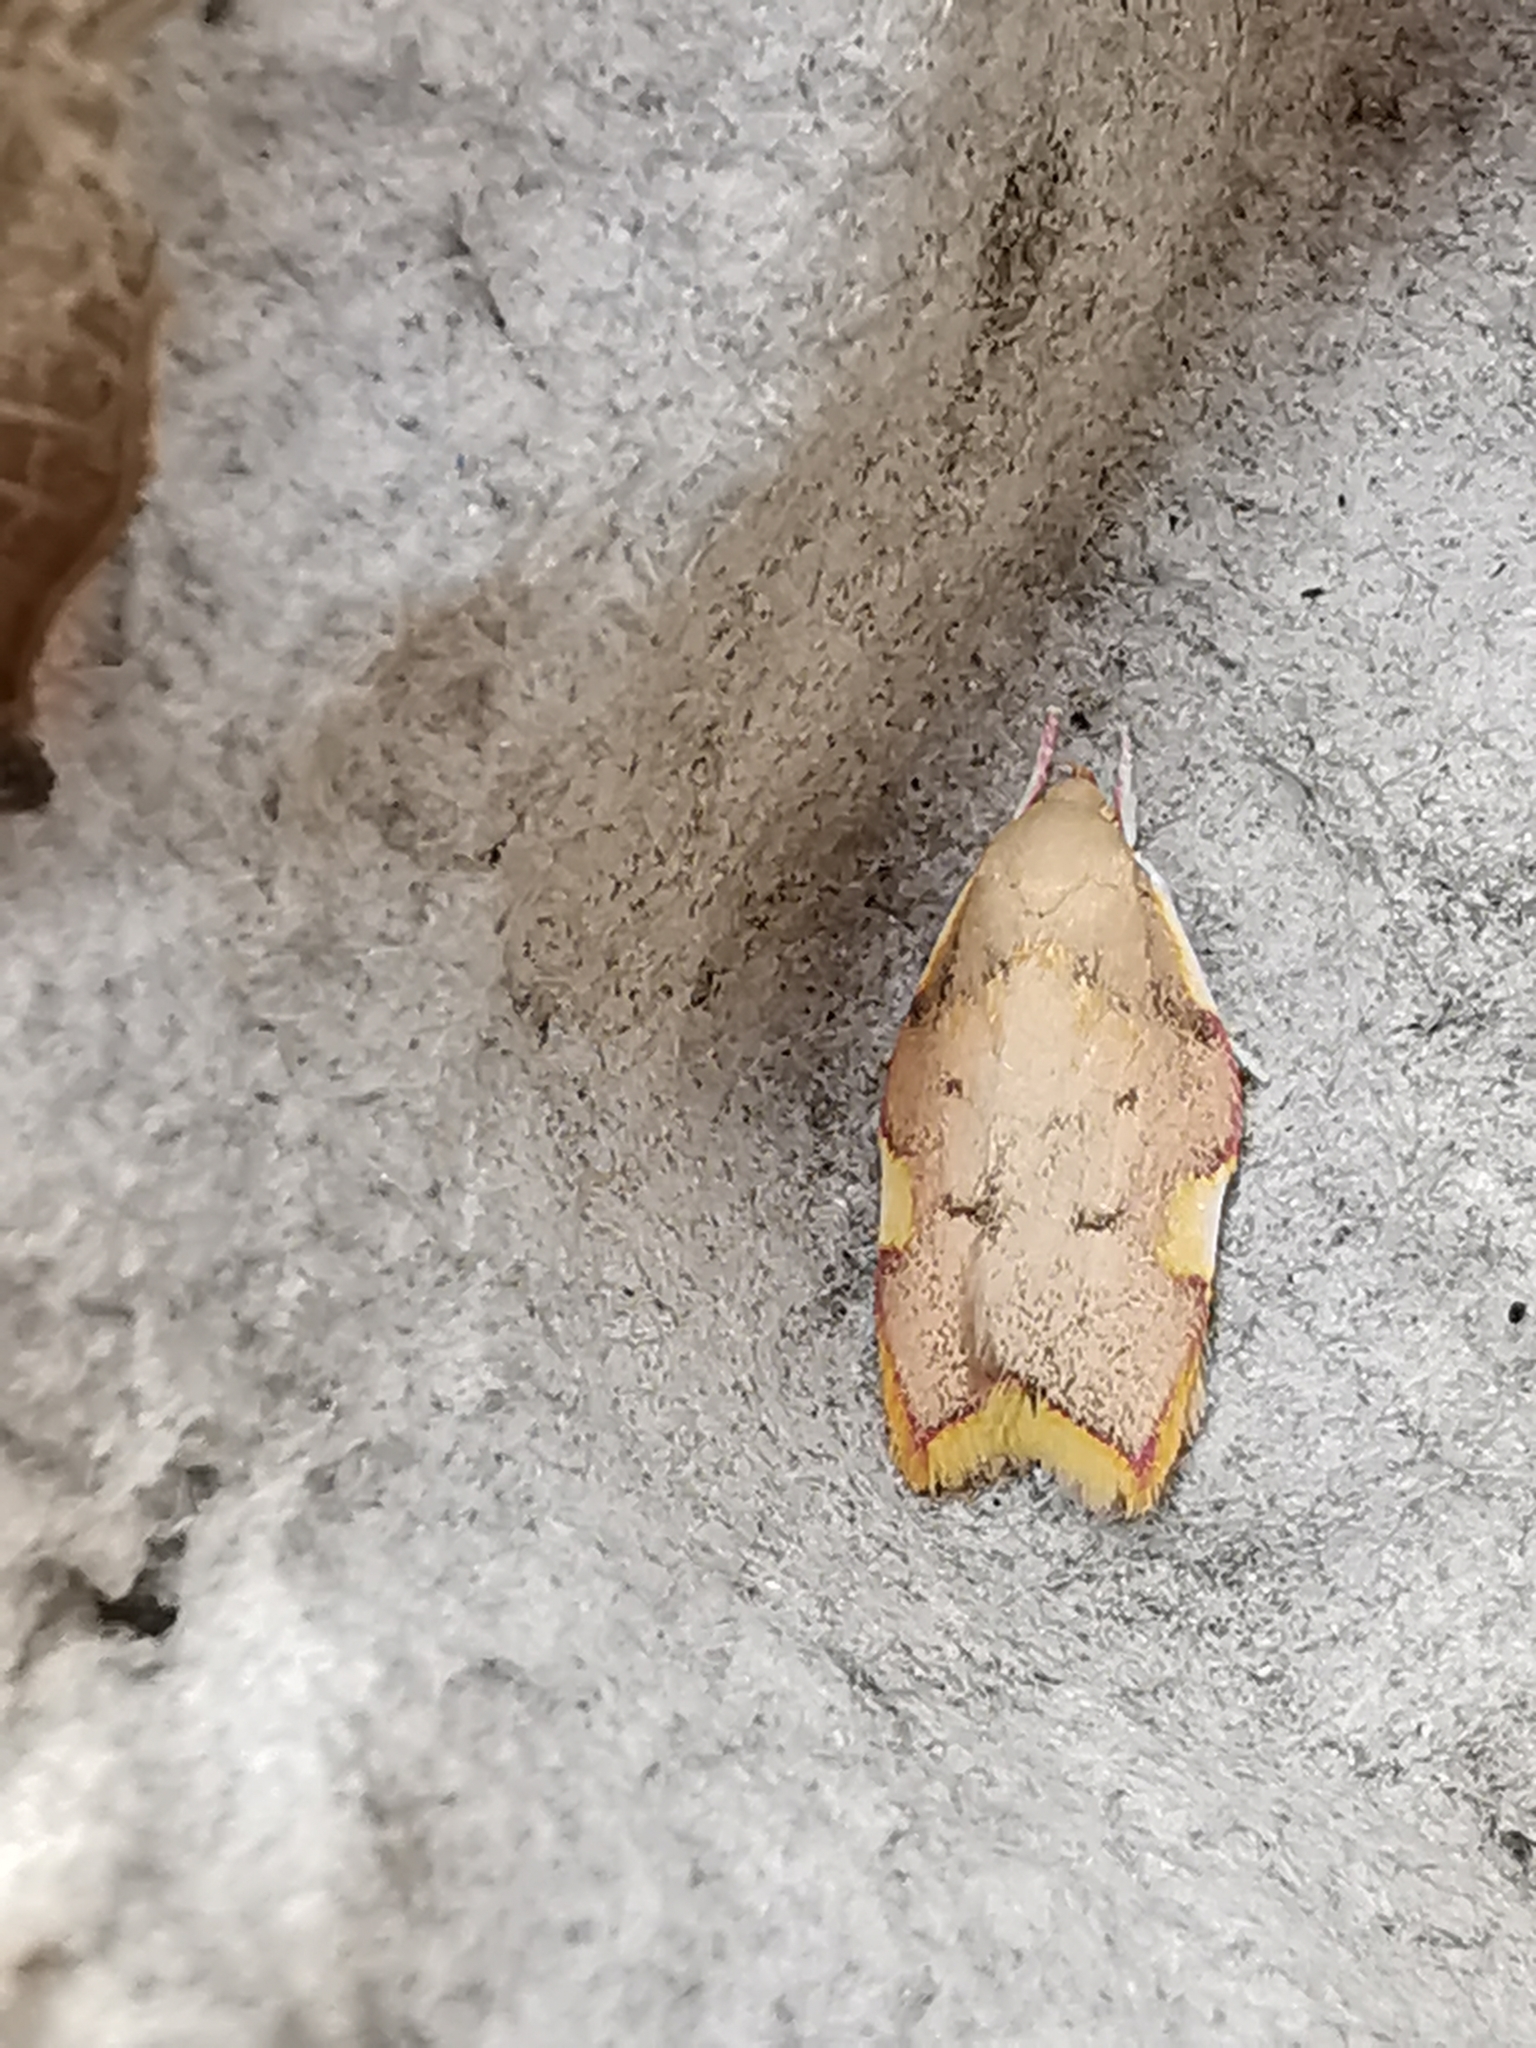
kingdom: Animalia
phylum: Arthropoda
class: Insecta
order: Lepidoptera
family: Peleopodidae
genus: Carcina
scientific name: Carcina quercana
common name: Moth
